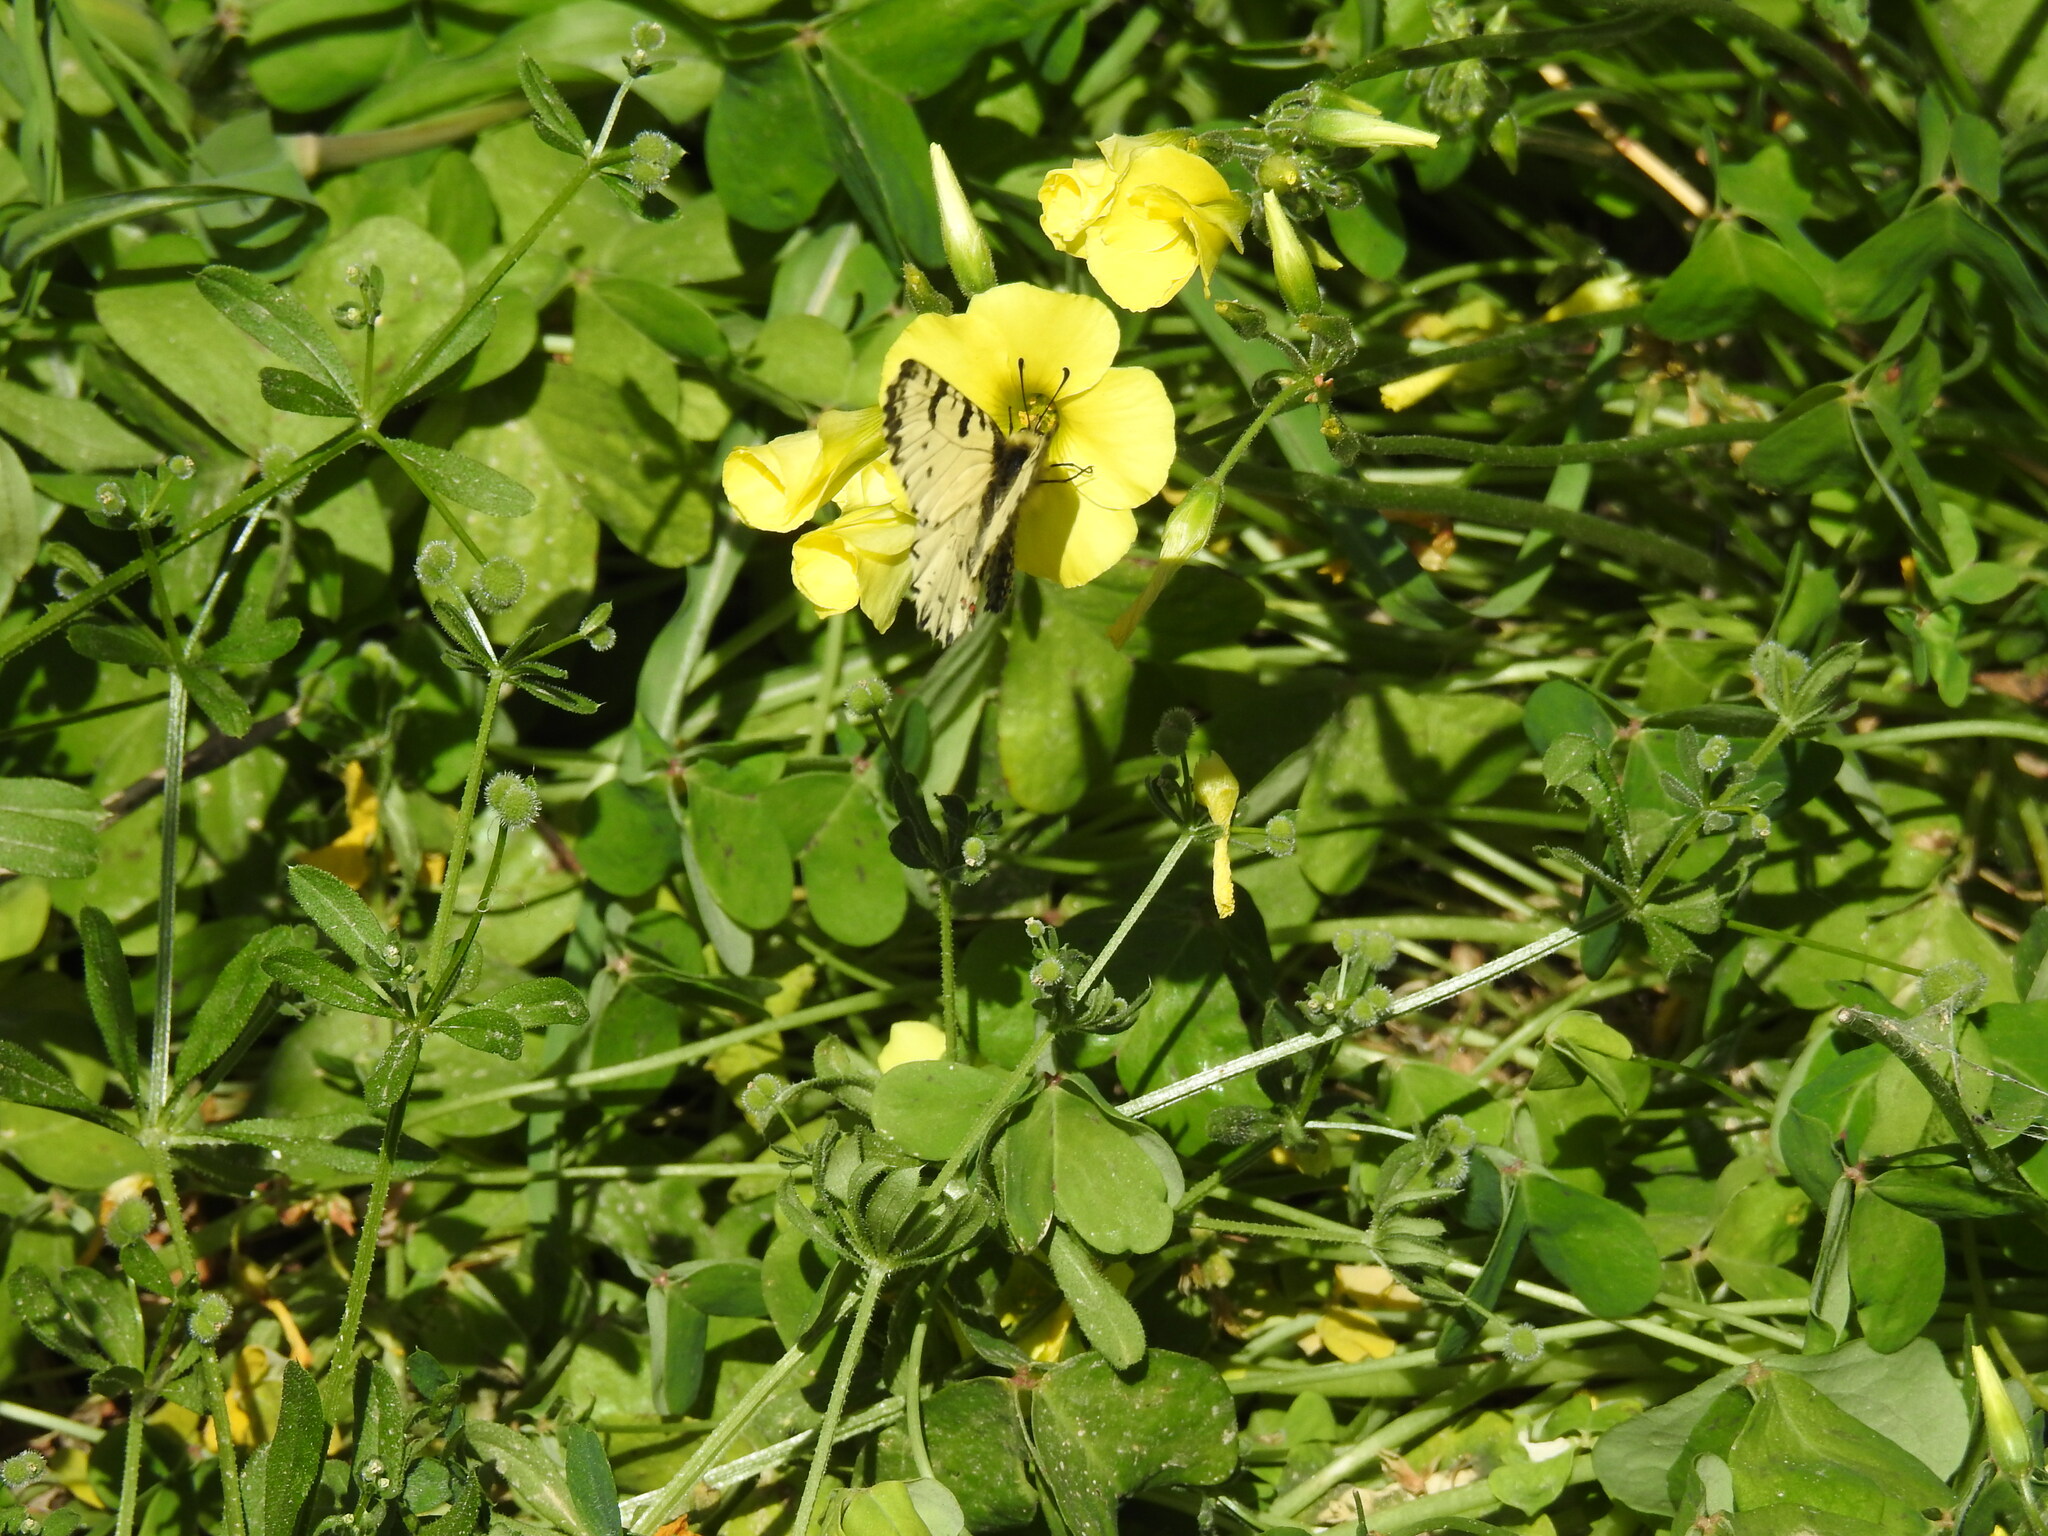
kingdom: Animalia
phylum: Arthropoda
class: Insecta
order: Lepidoptera
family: Papilionidae
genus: Zerynthia
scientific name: Zerynthia cretica
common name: Cretan festoon
